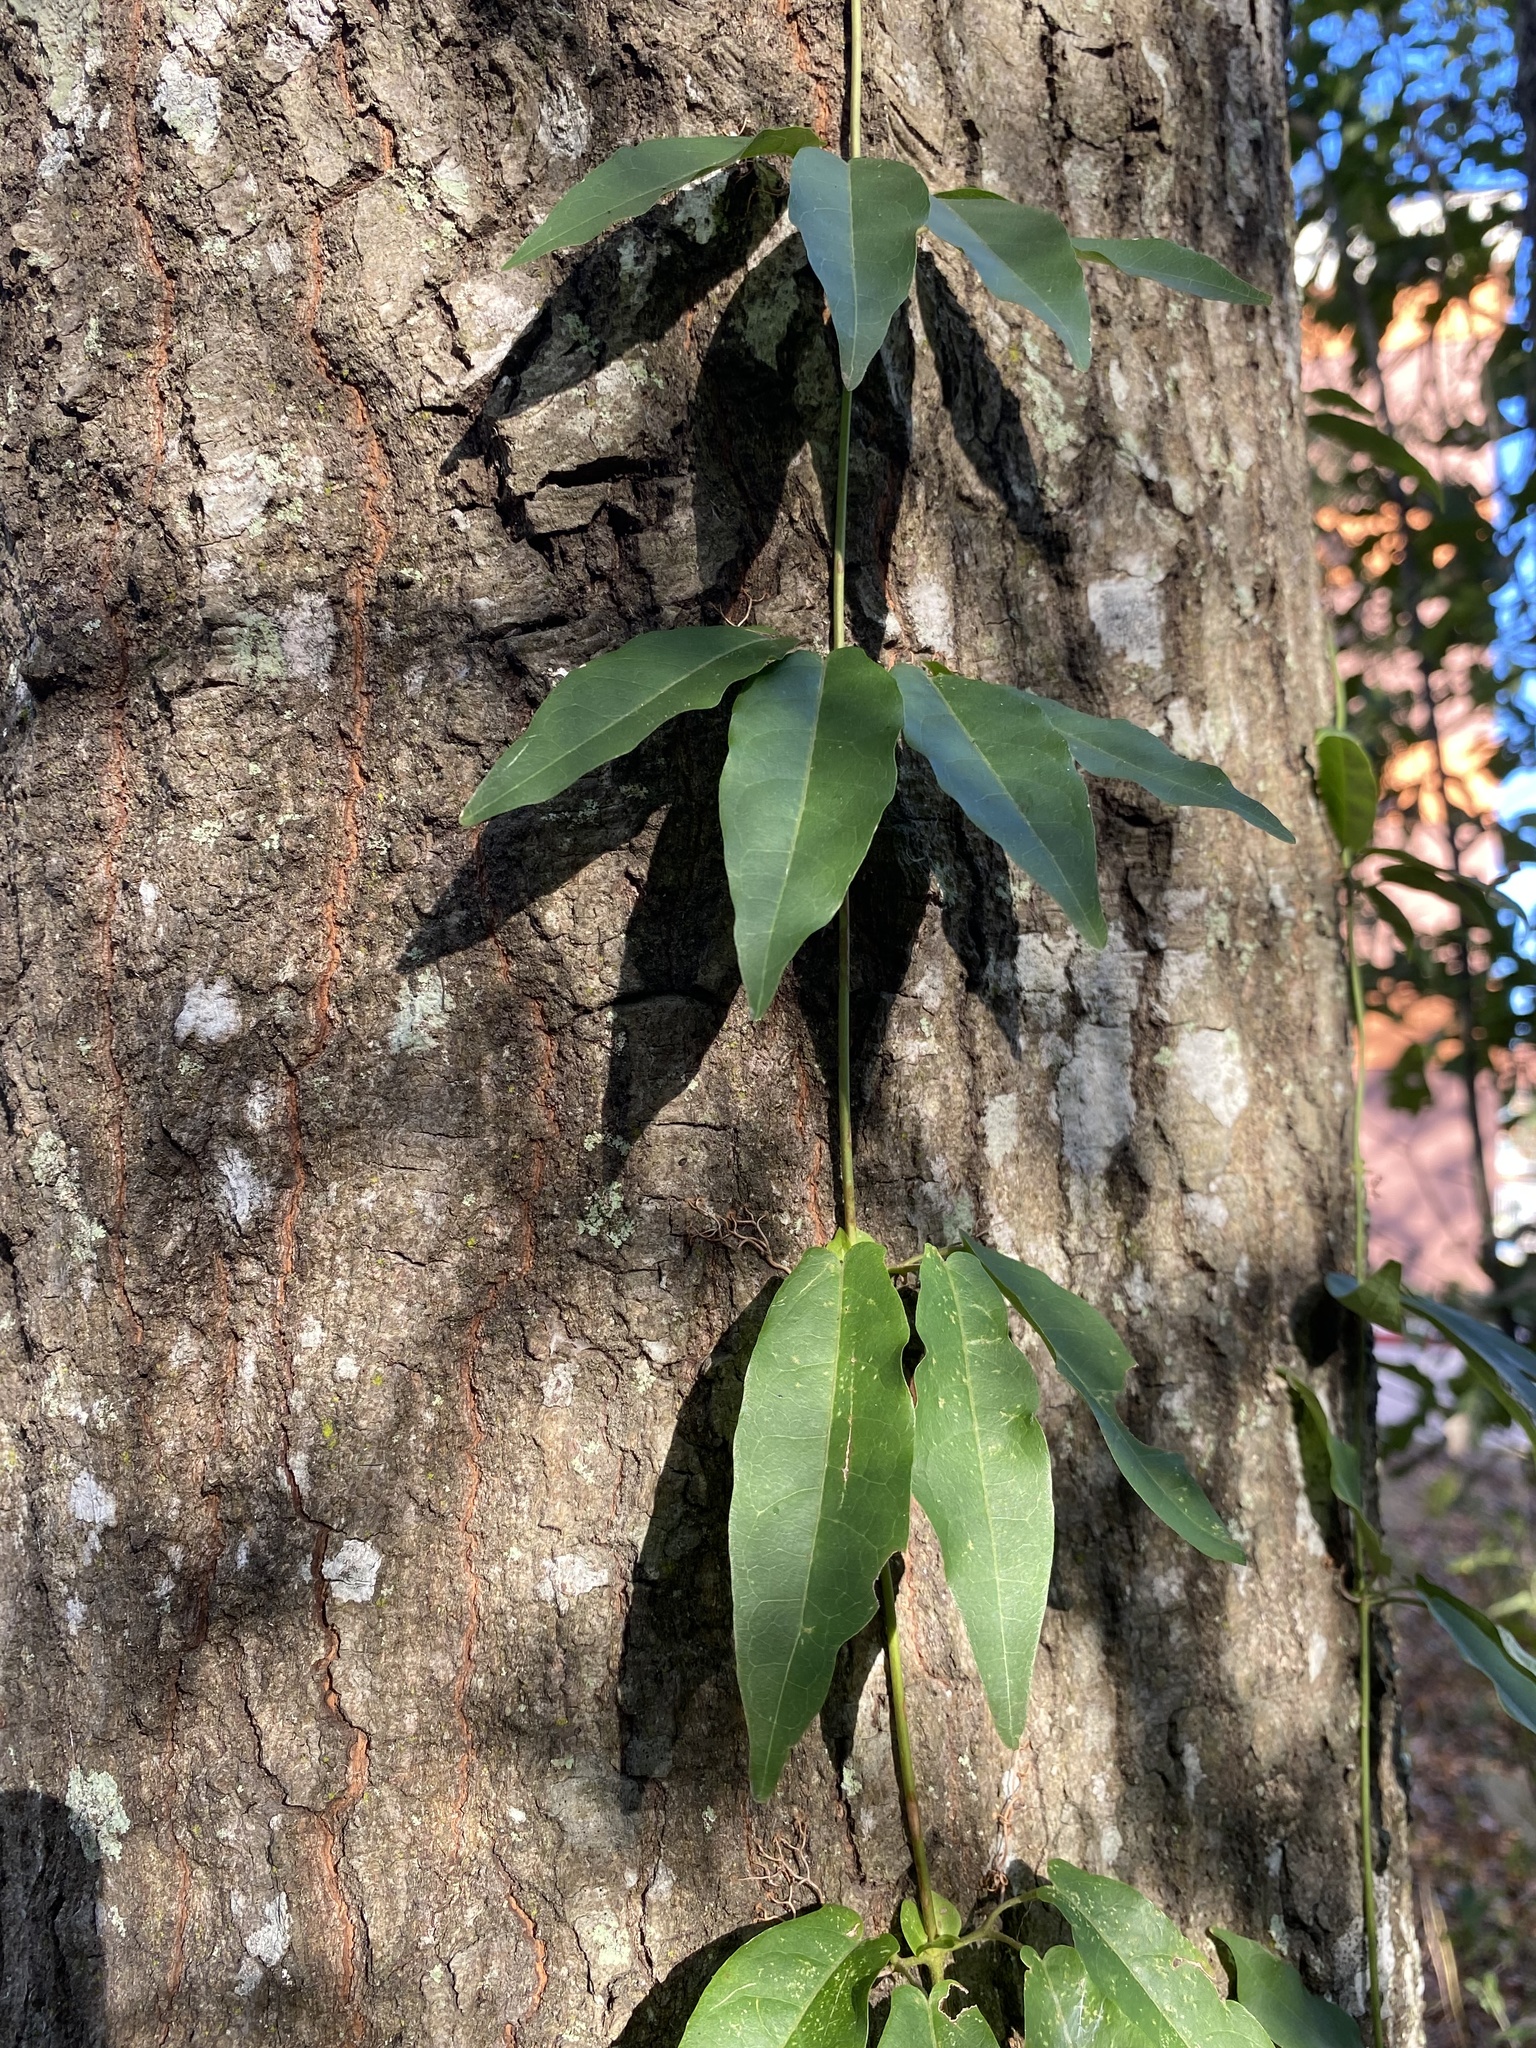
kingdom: Plantae
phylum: Tracheophyta
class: Magnoliopsida
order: Lamiales
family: Bignoniaceae
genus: Bignonia
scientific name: Bignonia capreolata
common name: Crossvine
